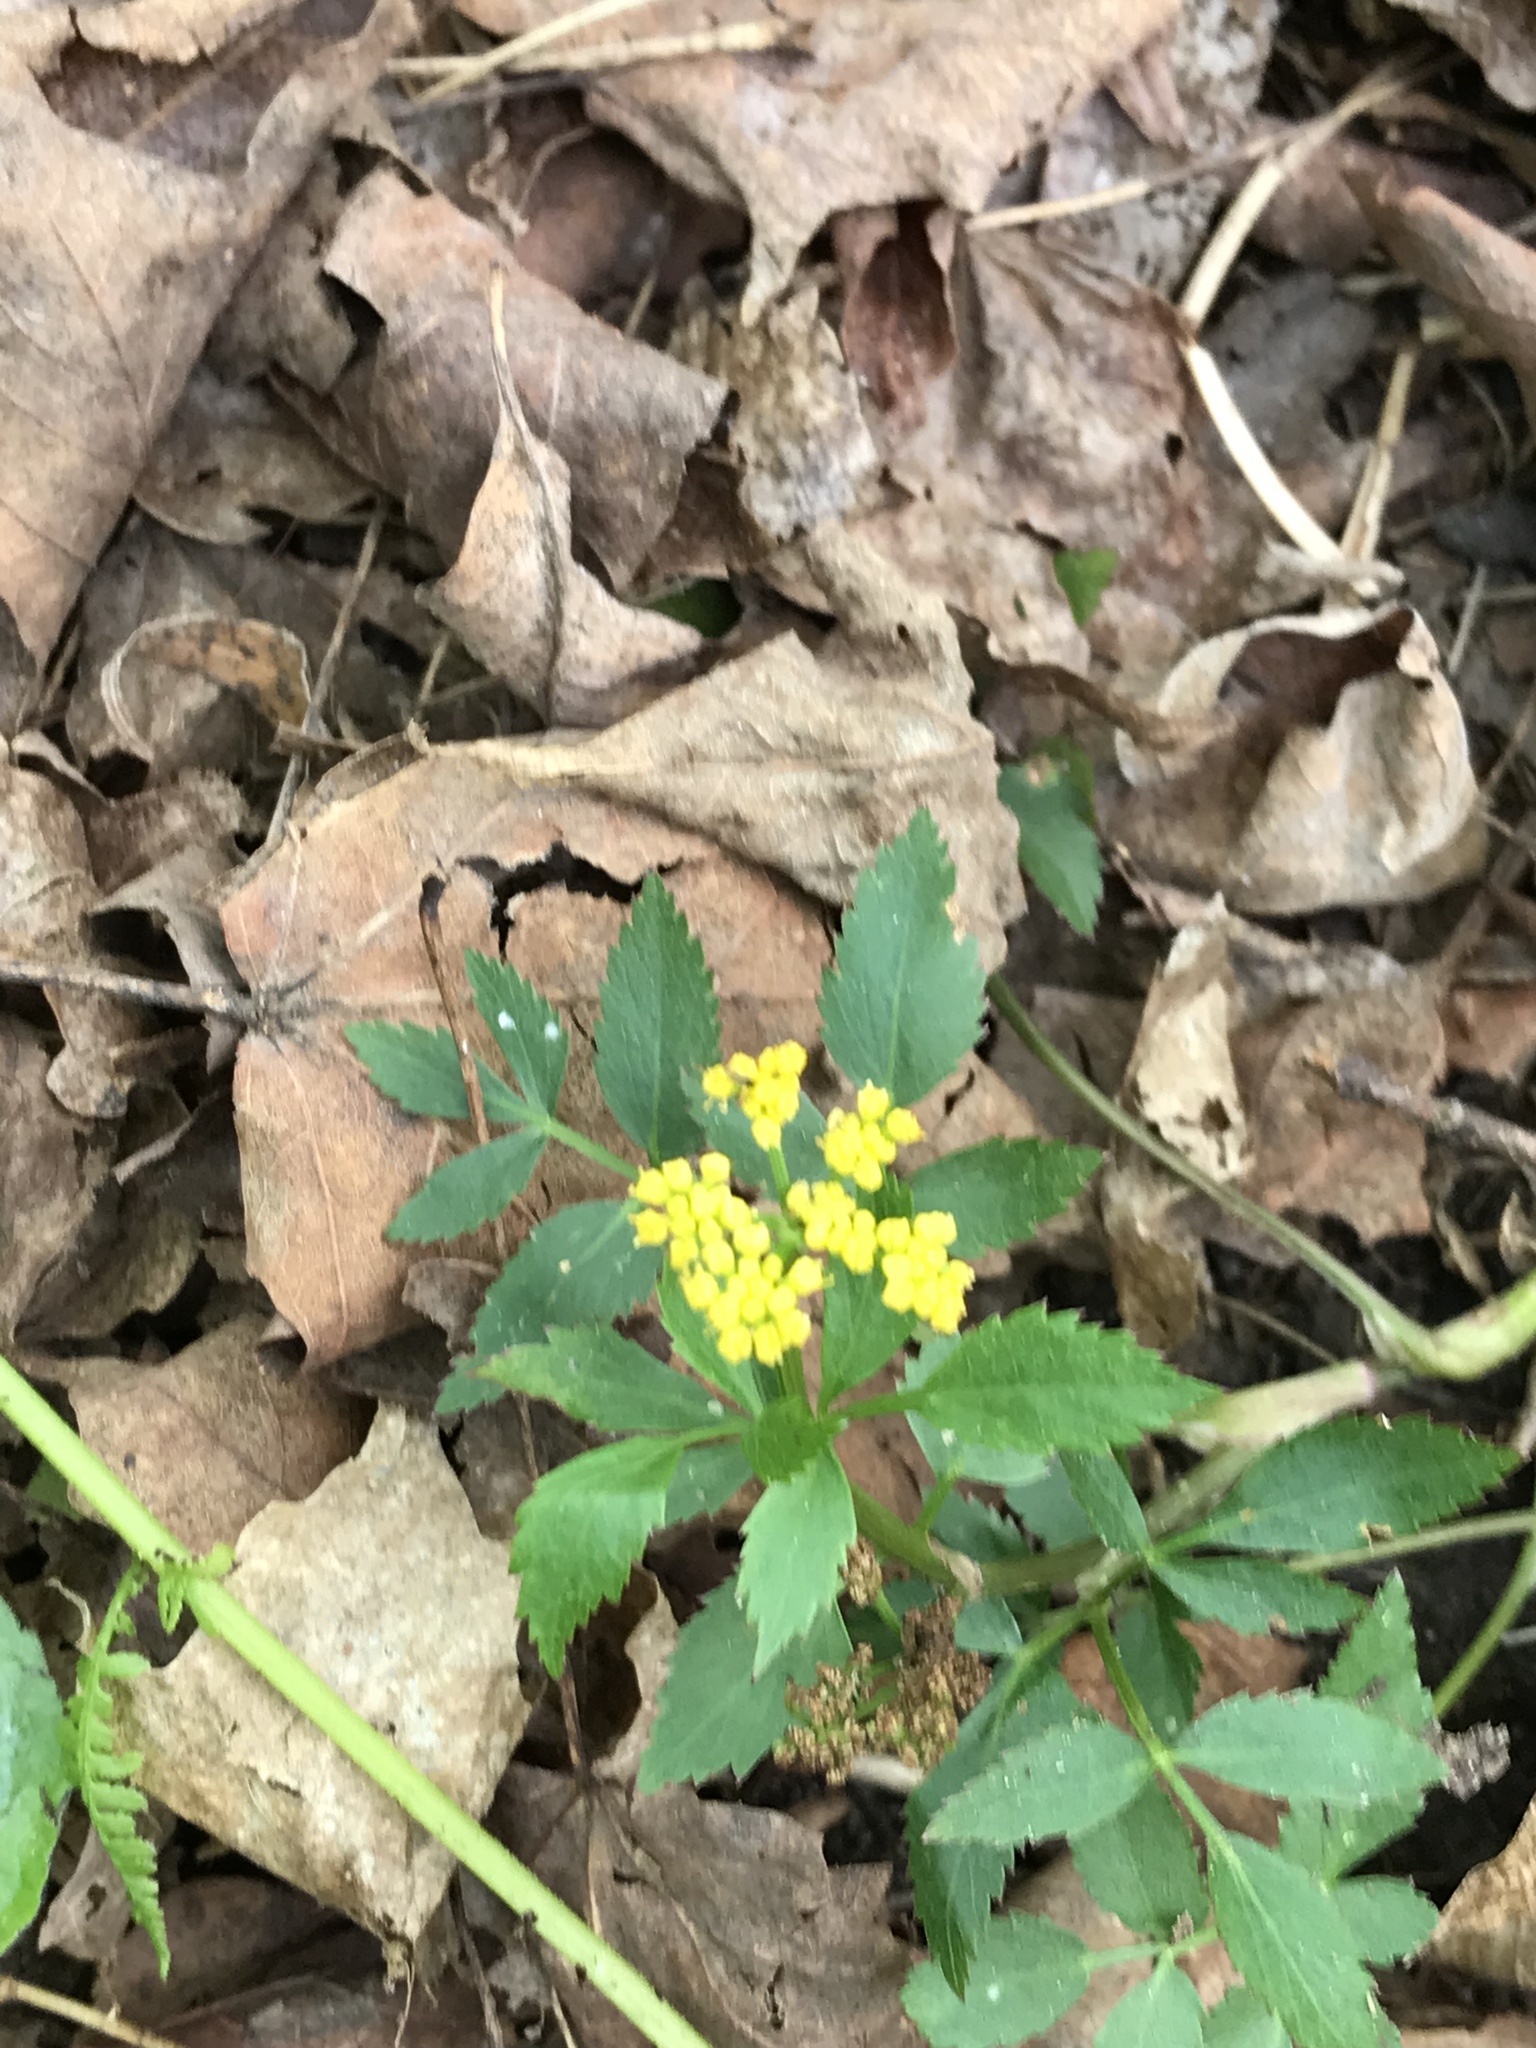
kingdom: Plantae
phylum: Tracheophyta
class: Magnoliopsida
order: Apiales
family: Apiaceae
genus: Zizia
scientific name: Zizia aurea
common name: Golden alexanders
